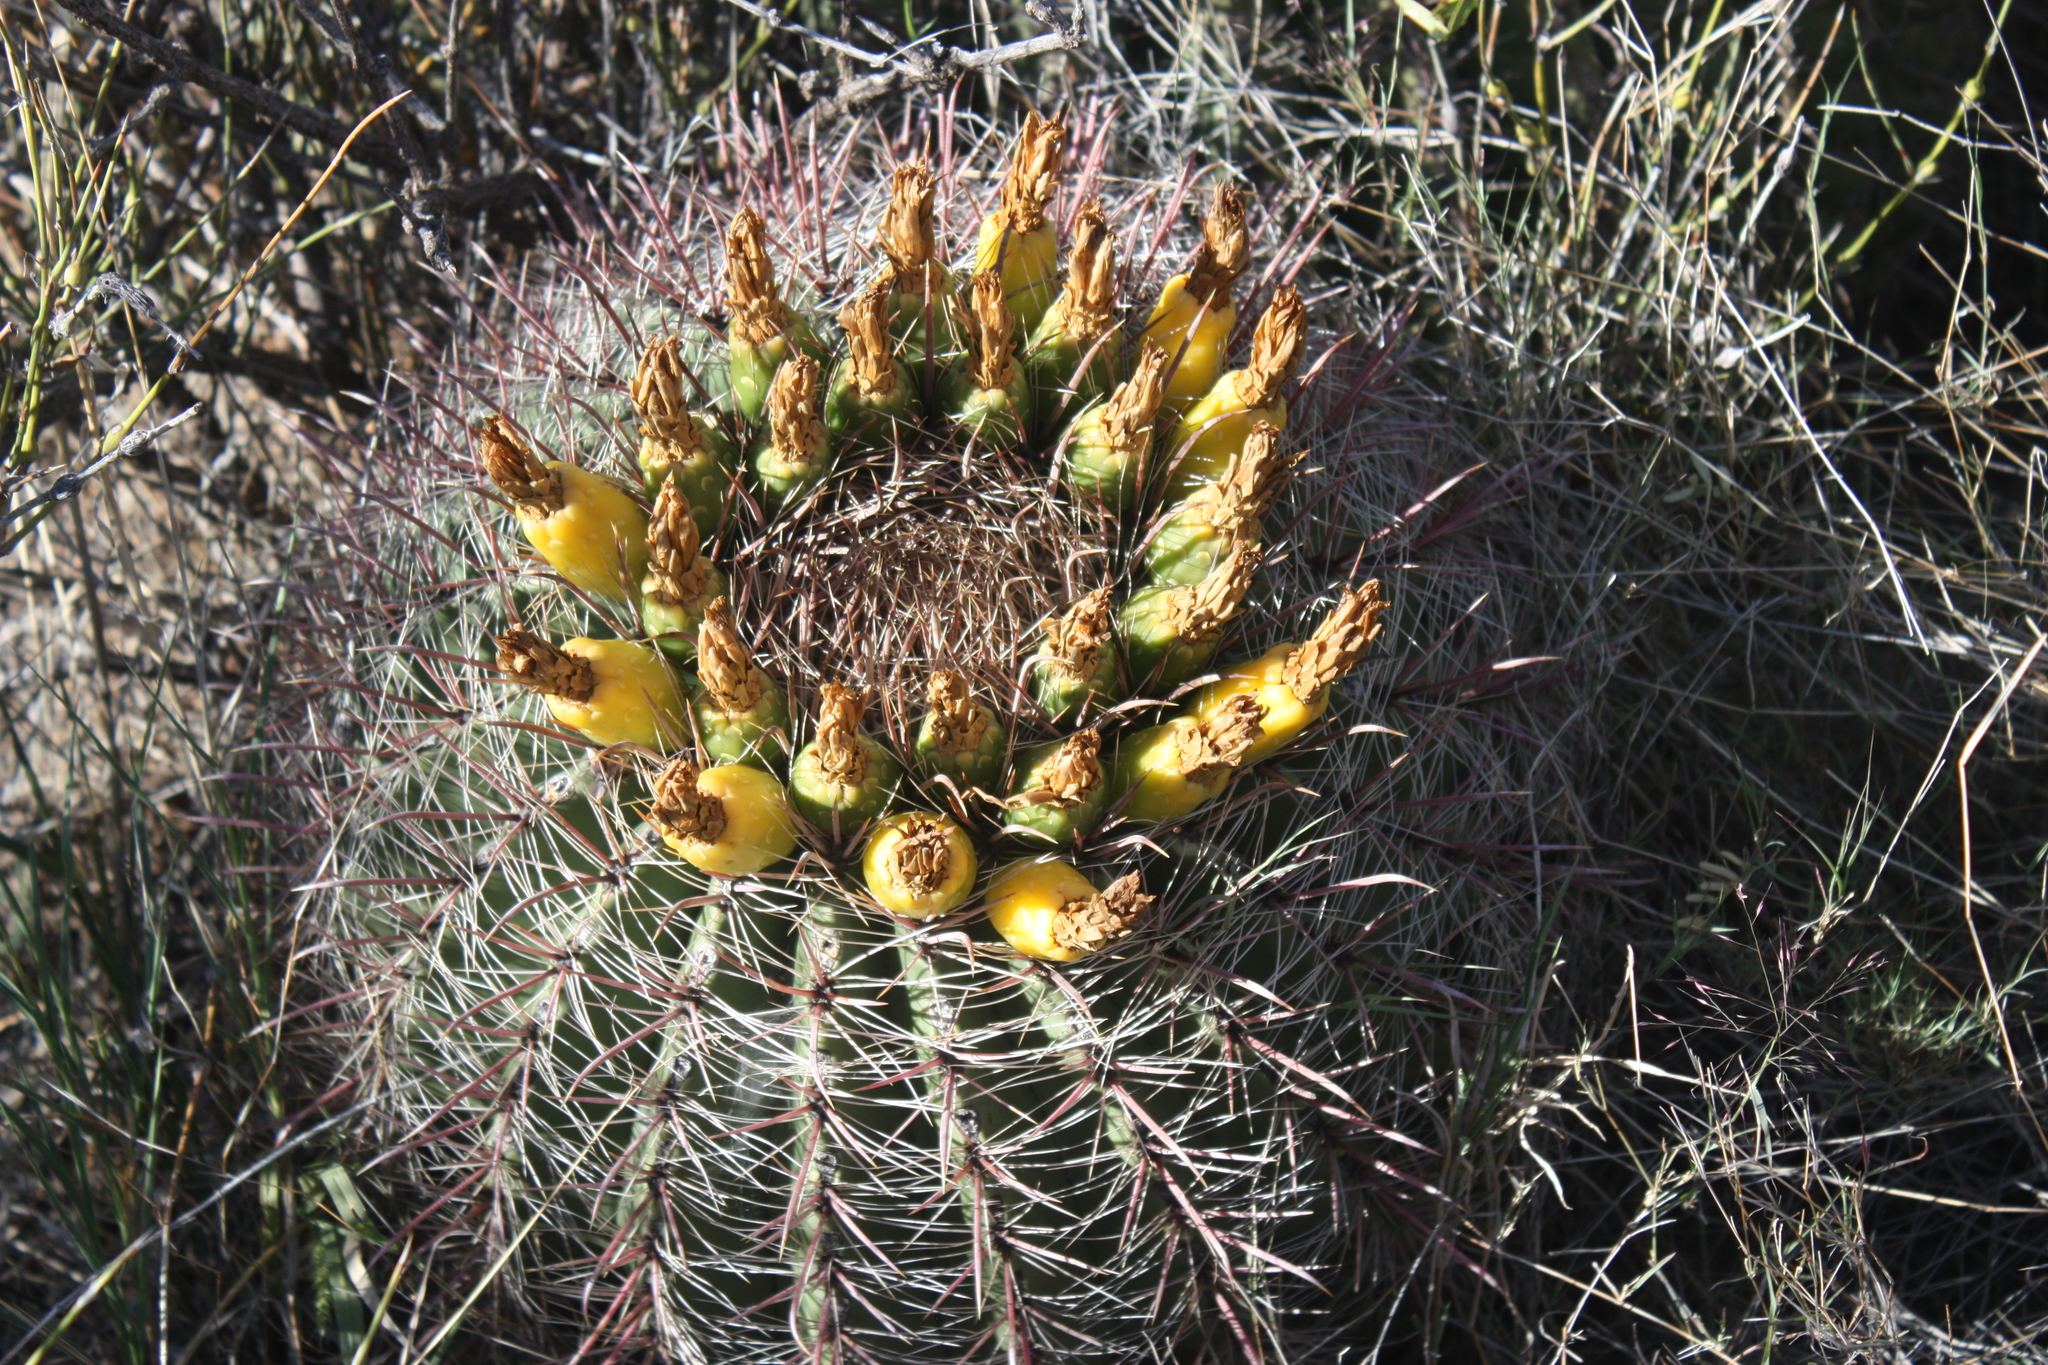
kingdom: Plantae
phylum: Tracheophyta
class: Magnoliopsida
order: Caryophyllales
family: Cactaceae
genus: Ferocactus
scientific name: Ferocactus wislizeni
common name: Candy barrel cactus
